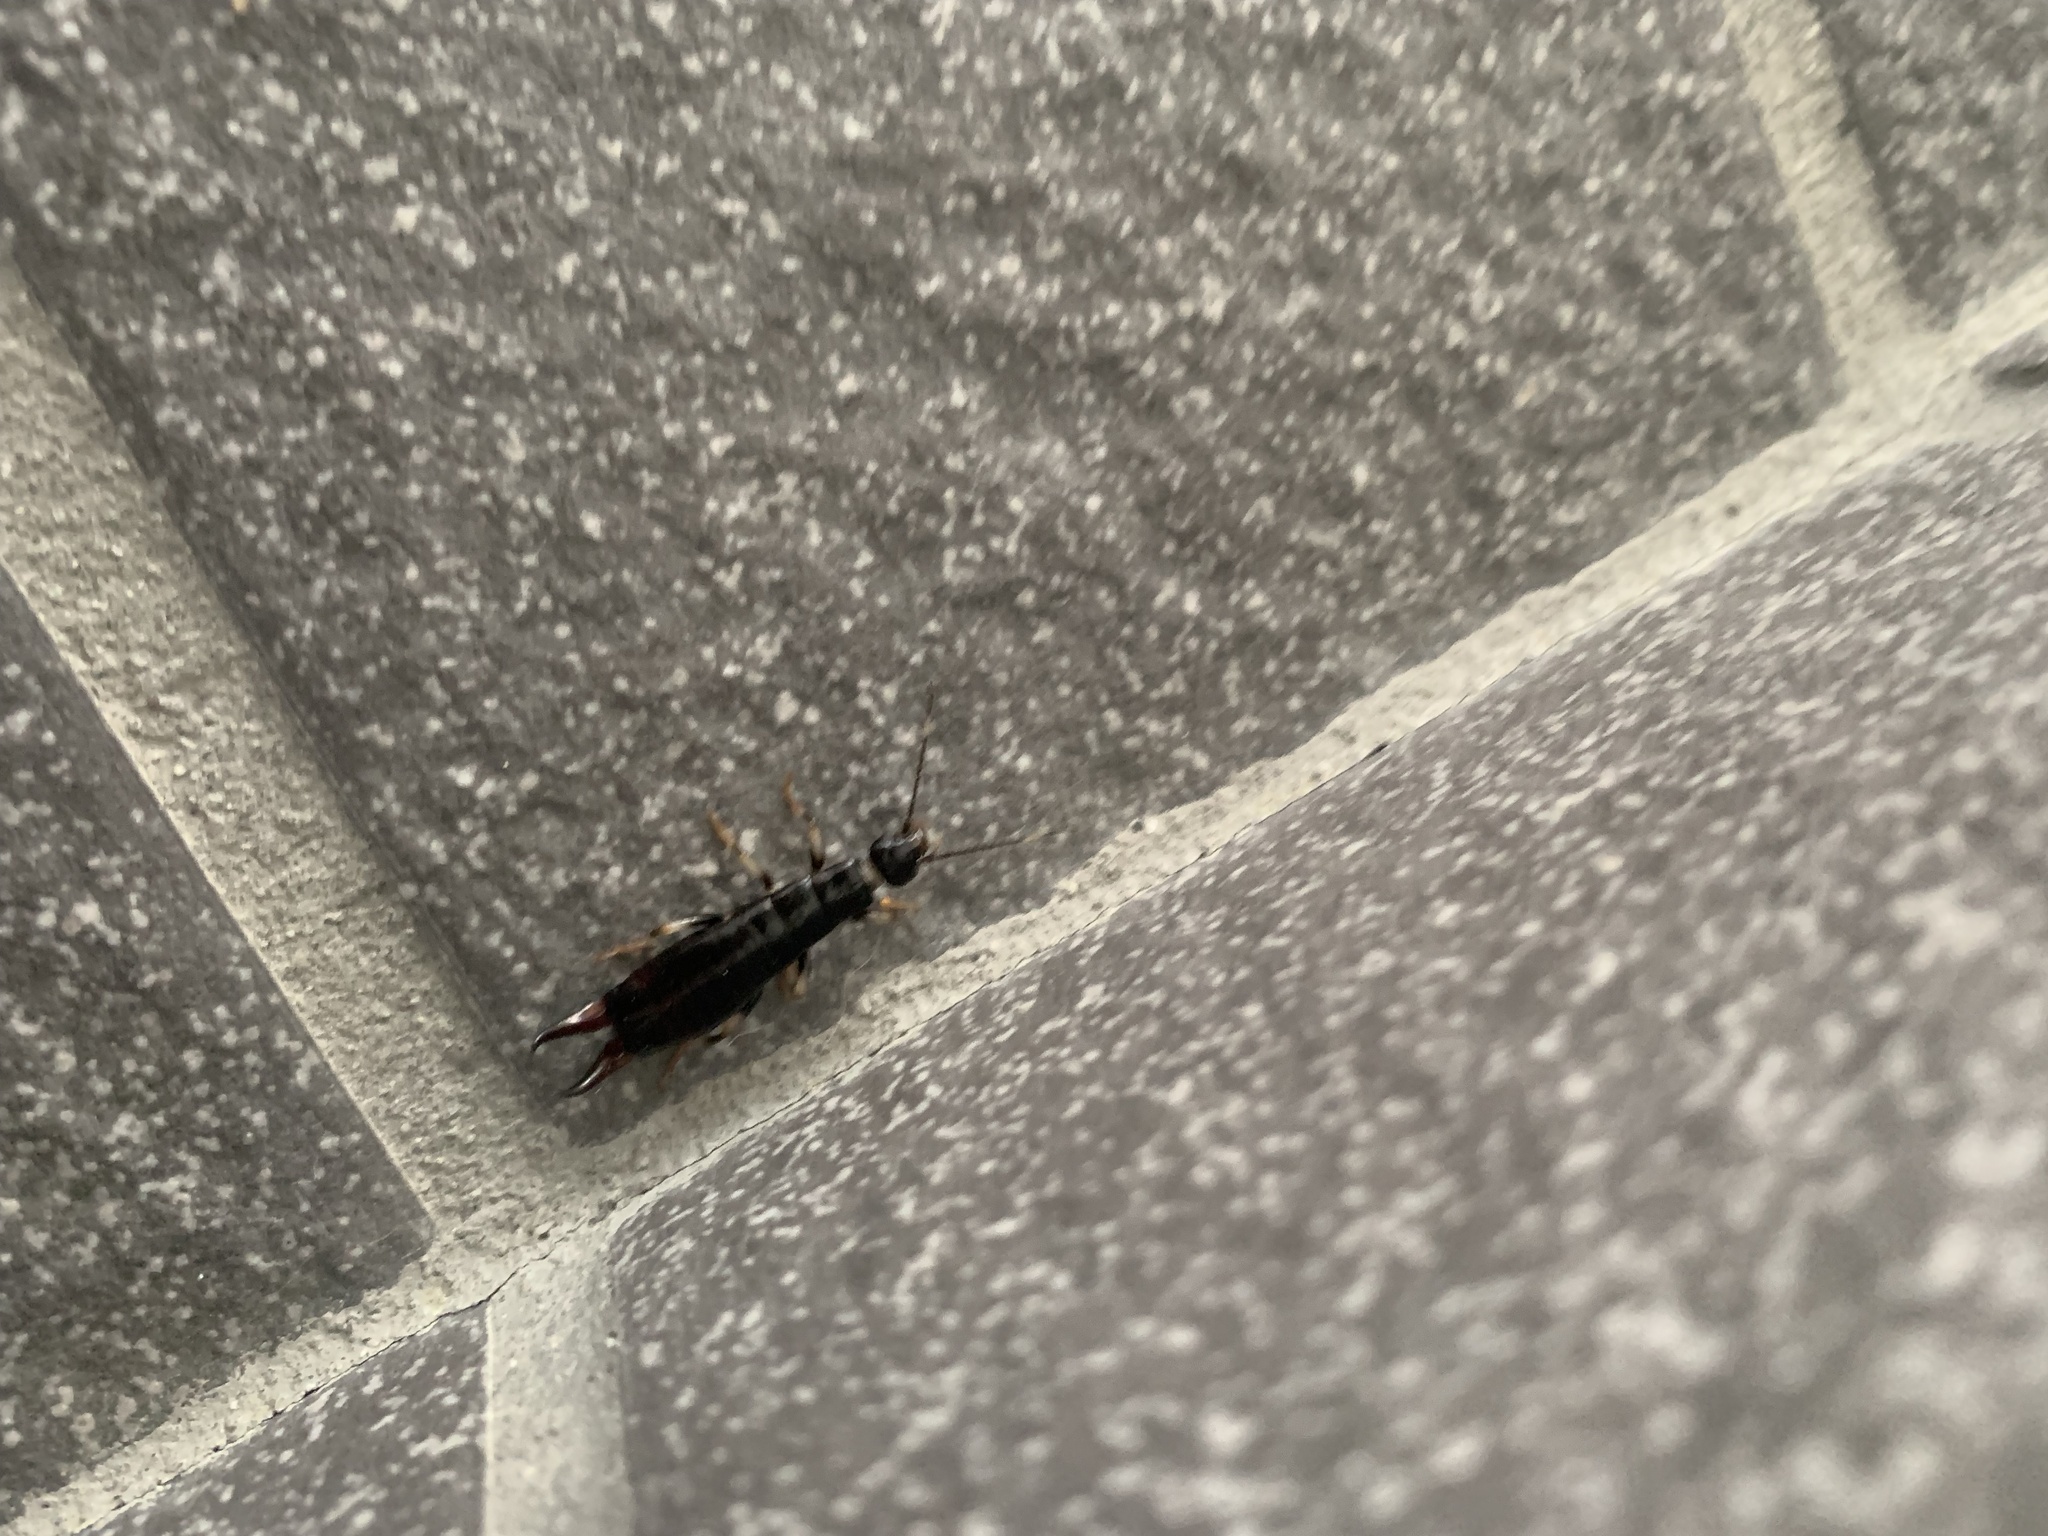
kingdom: Animalia
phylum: Arthropoda
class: Insecta
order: Dermaptera
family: Anisolabididae
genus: Anisolabella
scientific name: Anisolabella marginalis
